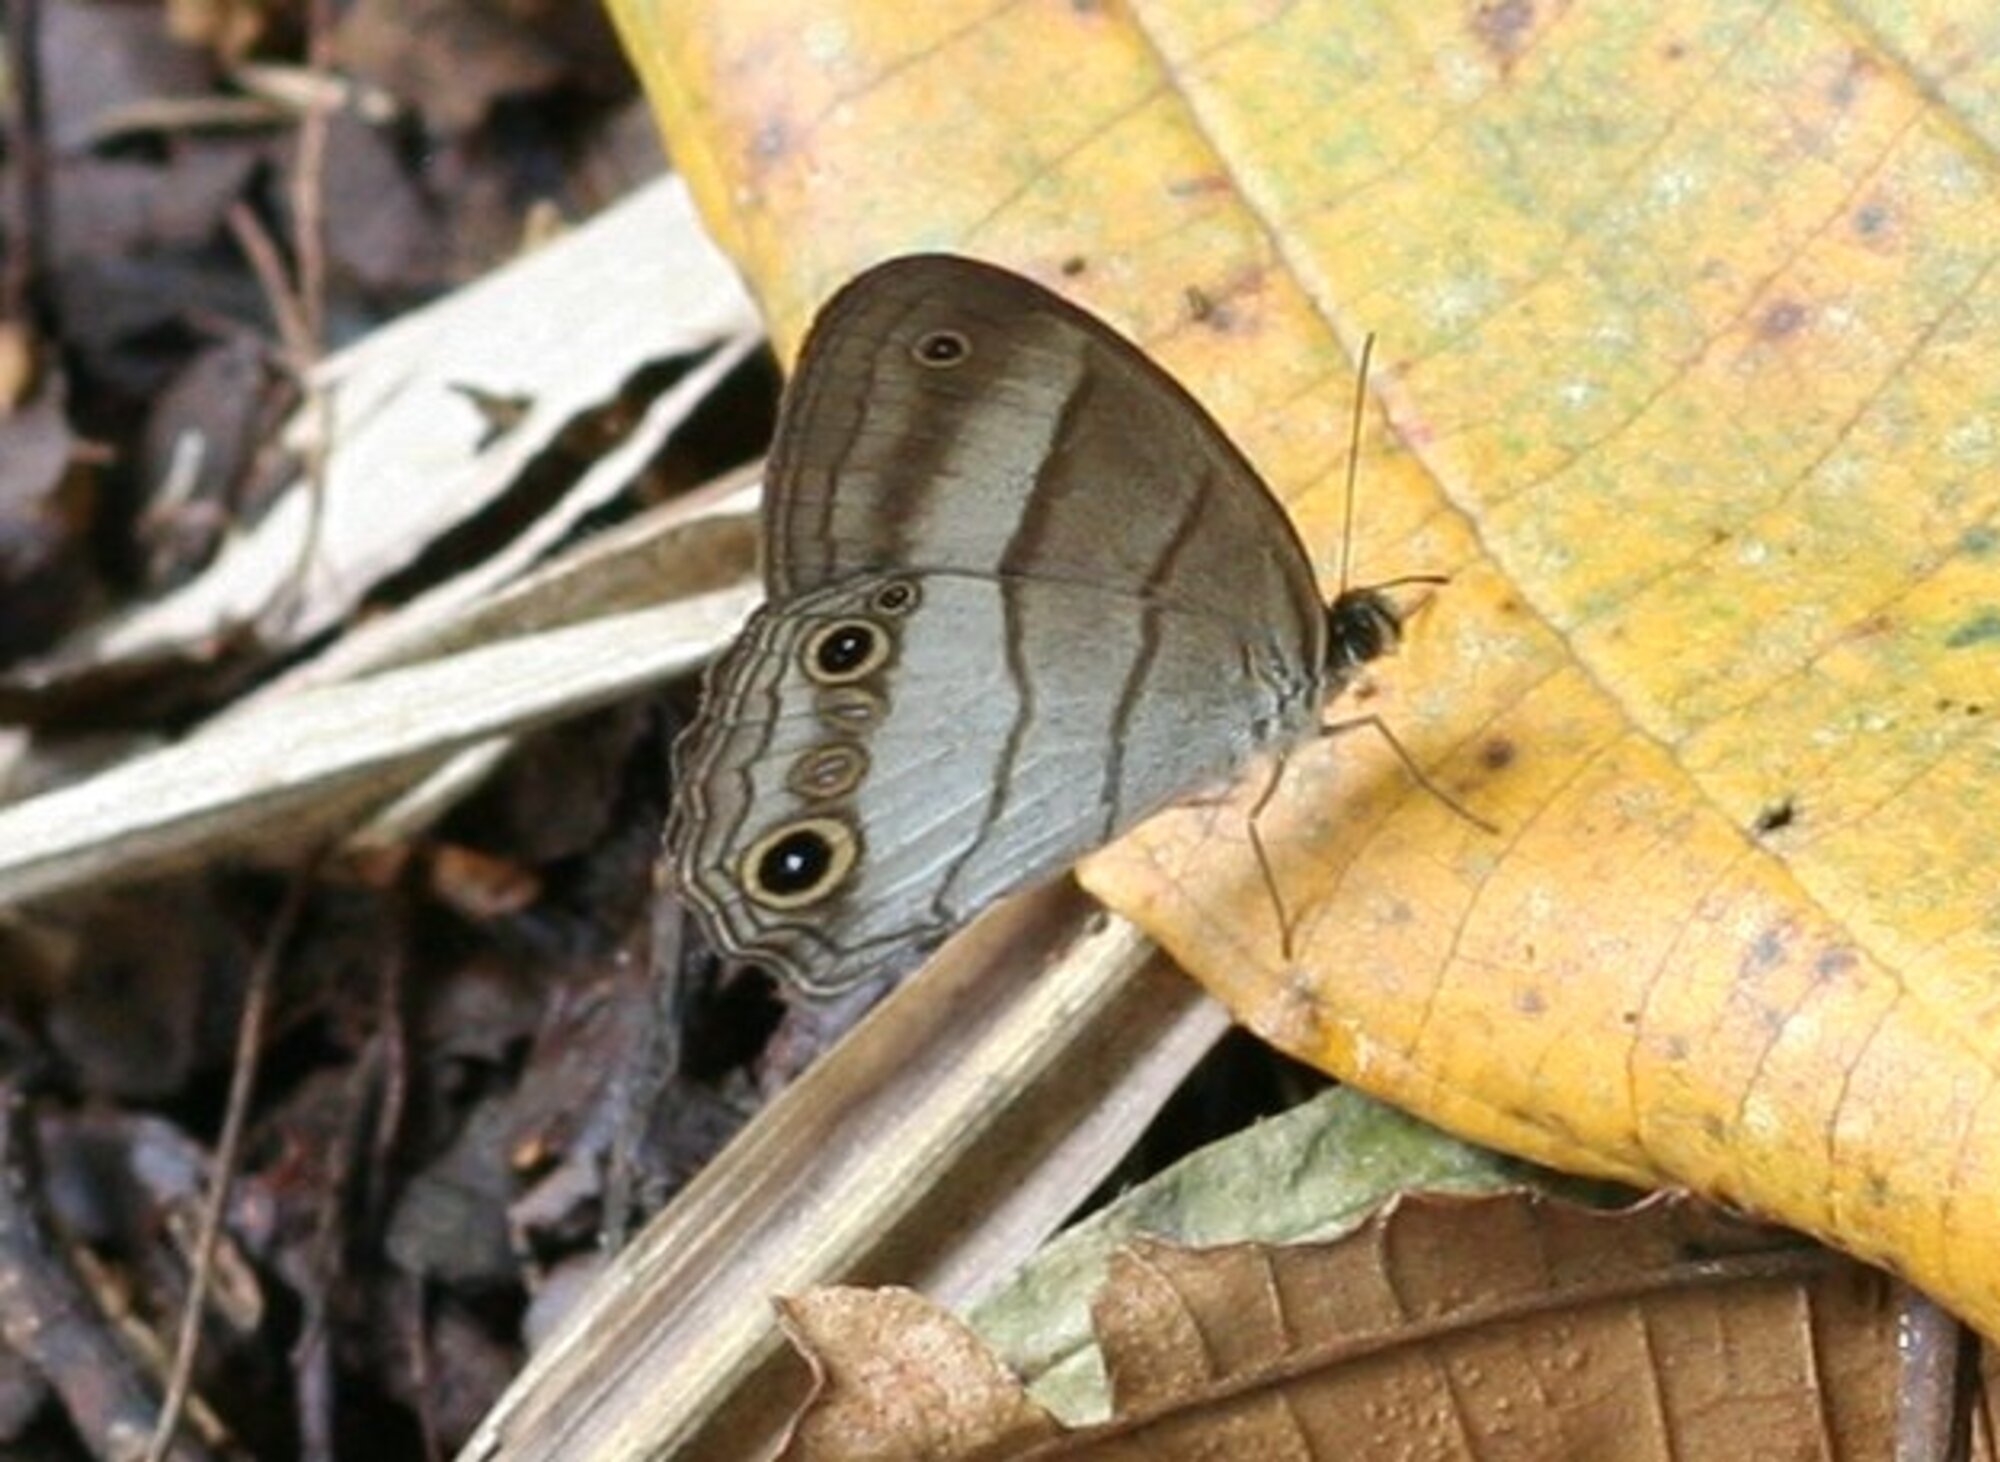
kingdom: Animalia
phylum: Arthropoda
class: Insecta
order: Lepidoptera
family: Nymphalidae
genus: Euptychoides
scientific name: Euptychoides saturnus
